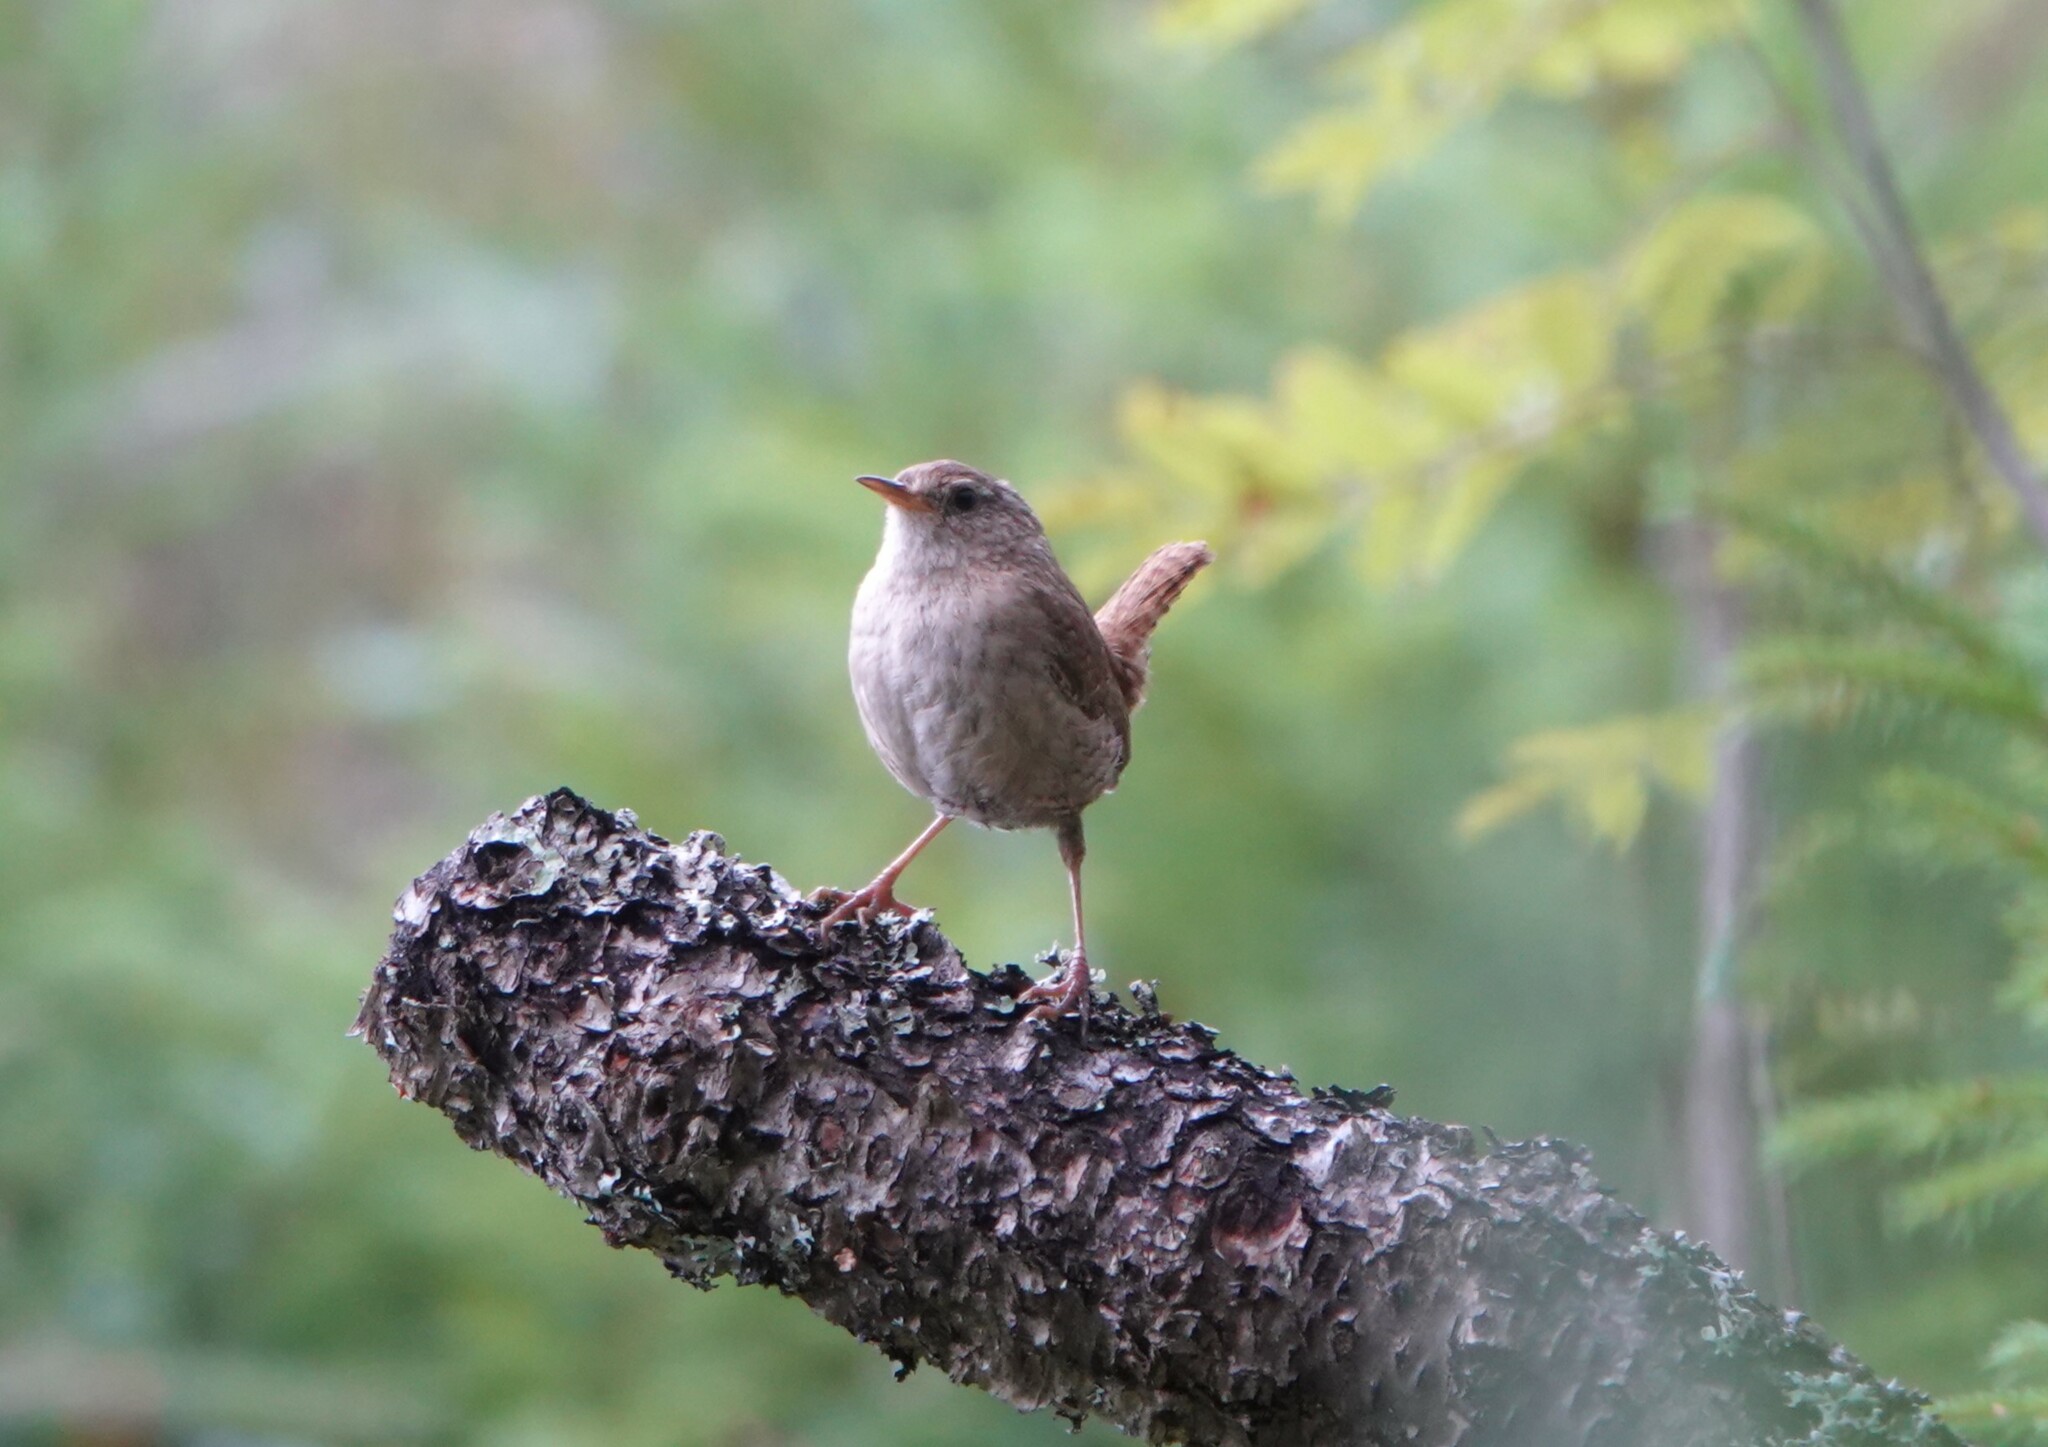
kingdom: Animalia
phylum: Chordata
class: Aves
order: Passeriformes
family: Troglodytidae
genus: Troglodytes
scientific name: Troglodytes troglodytes
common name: Eurasian wren
